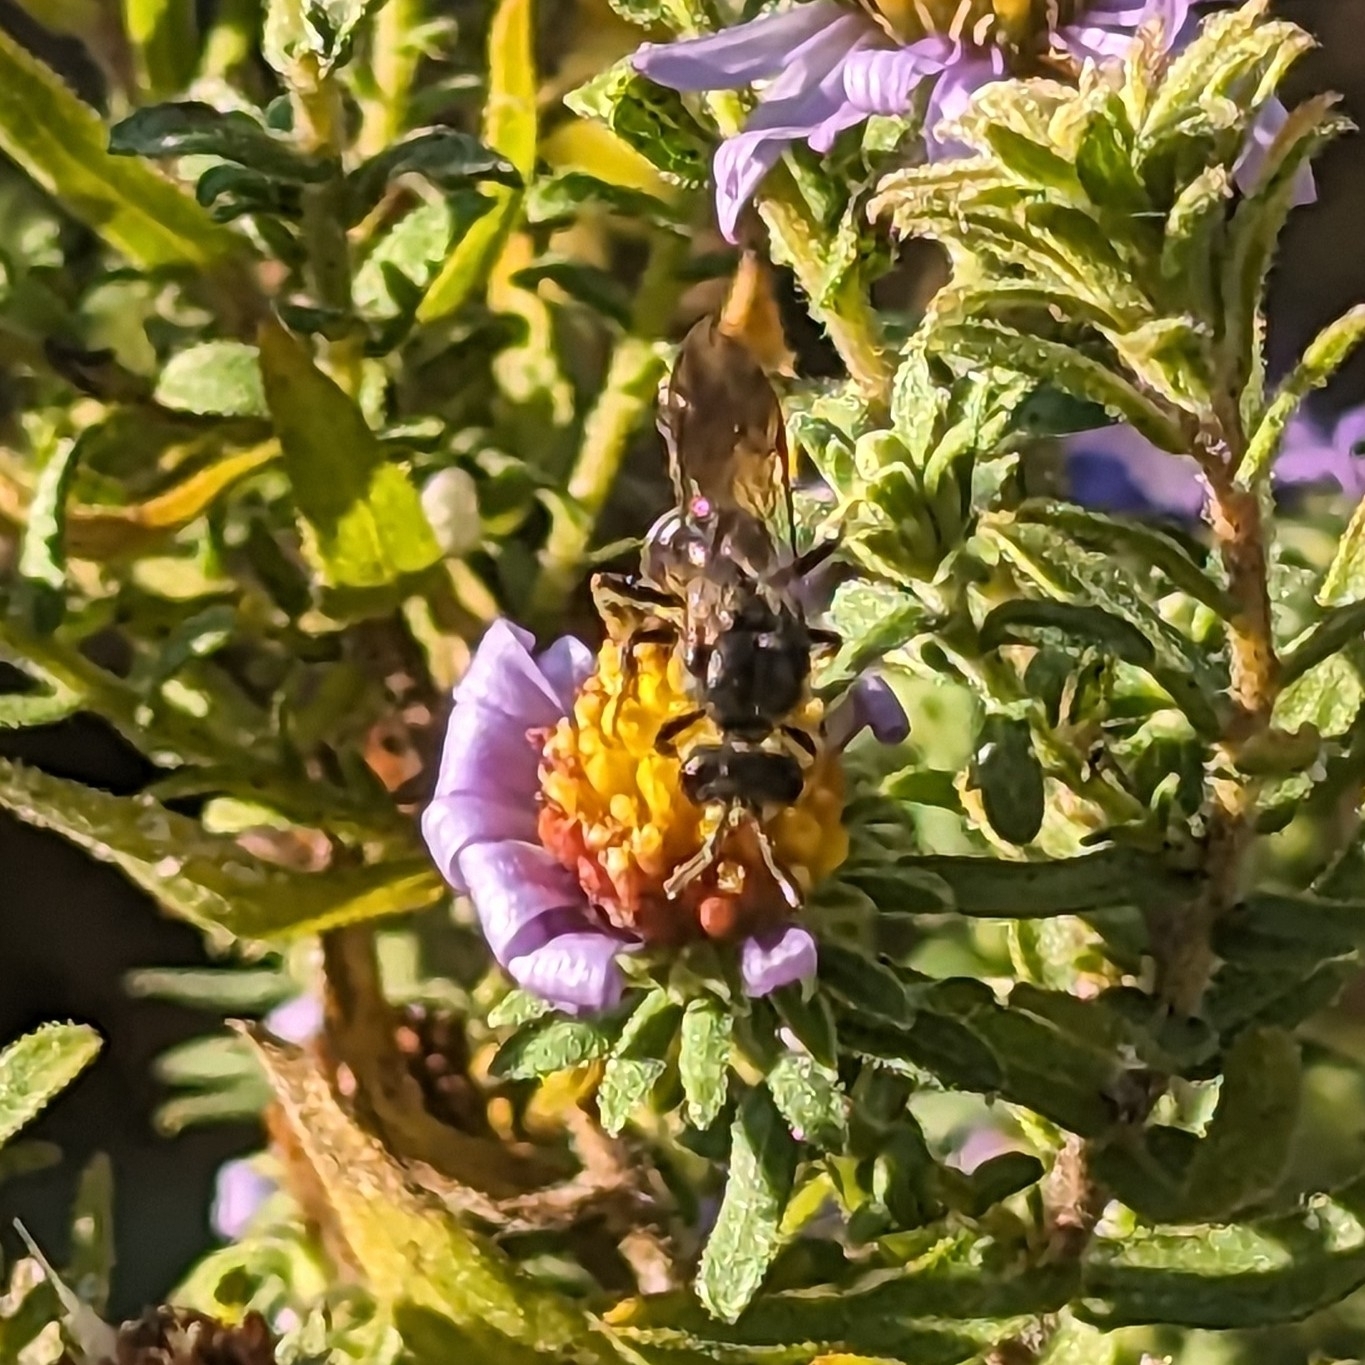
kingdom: Animalia
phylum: Arthropoda
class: Insecta
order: Hymenoptera
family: Halictidae
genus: Lasioglossum
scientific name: Lasioglossum fuscipenne
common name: Brown-winged sweat bee
